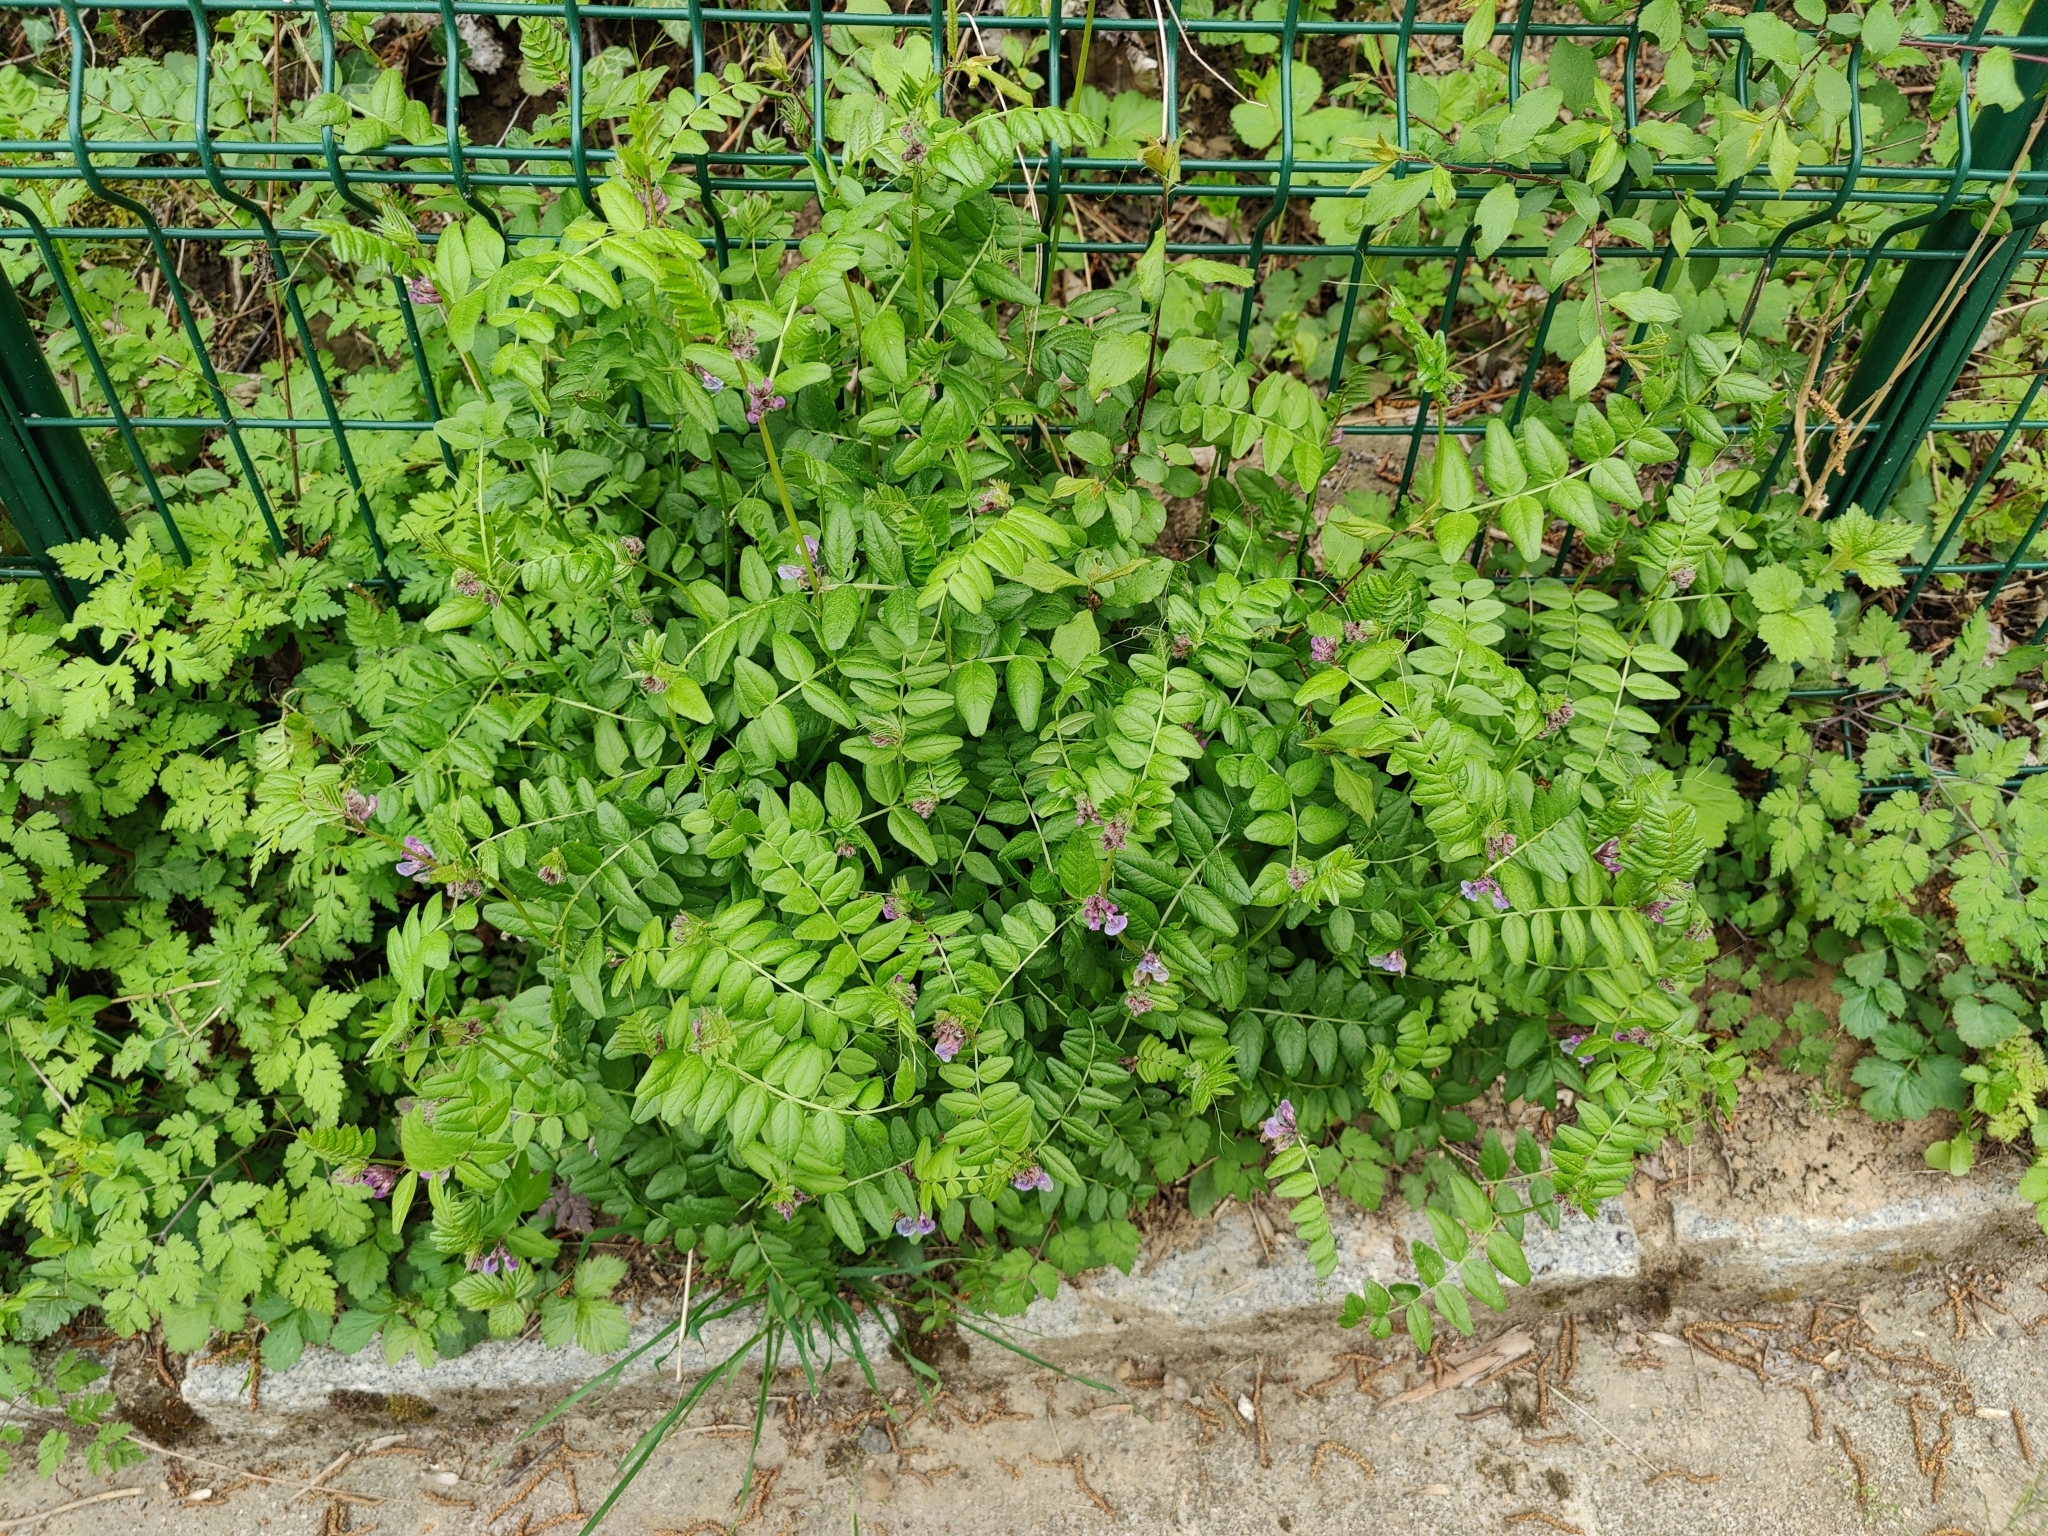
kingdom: Plantae
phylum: Tracheophyta
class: Magnoliopsida
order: Fabales
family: Fabaceae
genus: Vicia
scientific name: Vicia sepium
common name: Bush vetch
